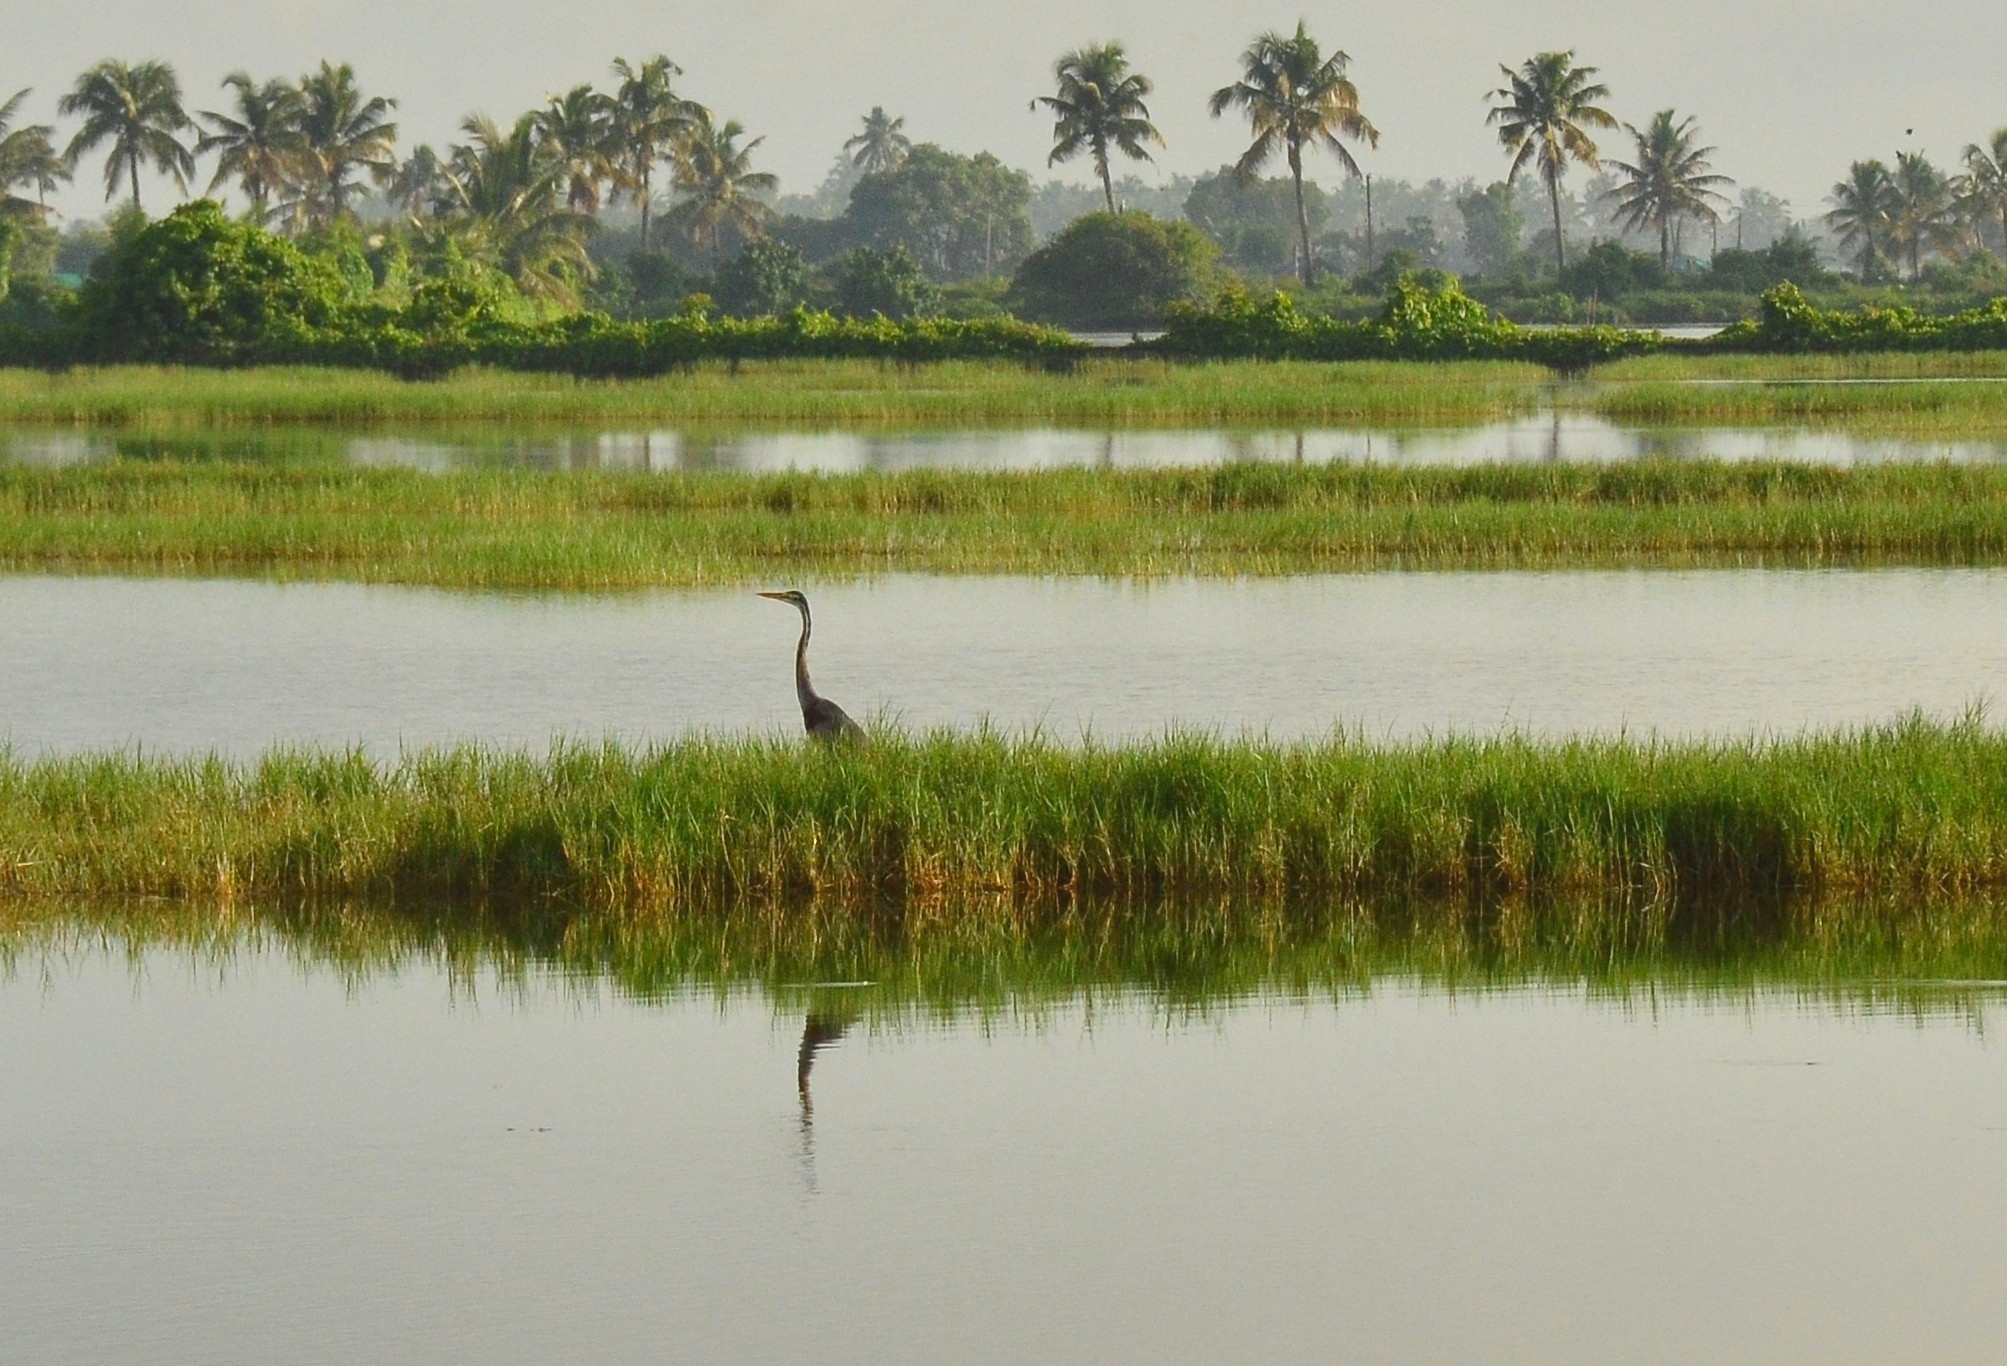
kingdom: Animalia
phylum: Chordata
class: Aves
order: Pelecaniformes
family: Ardeidae
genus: Ardea
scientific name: Ardea purpurea
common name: Purple heron
